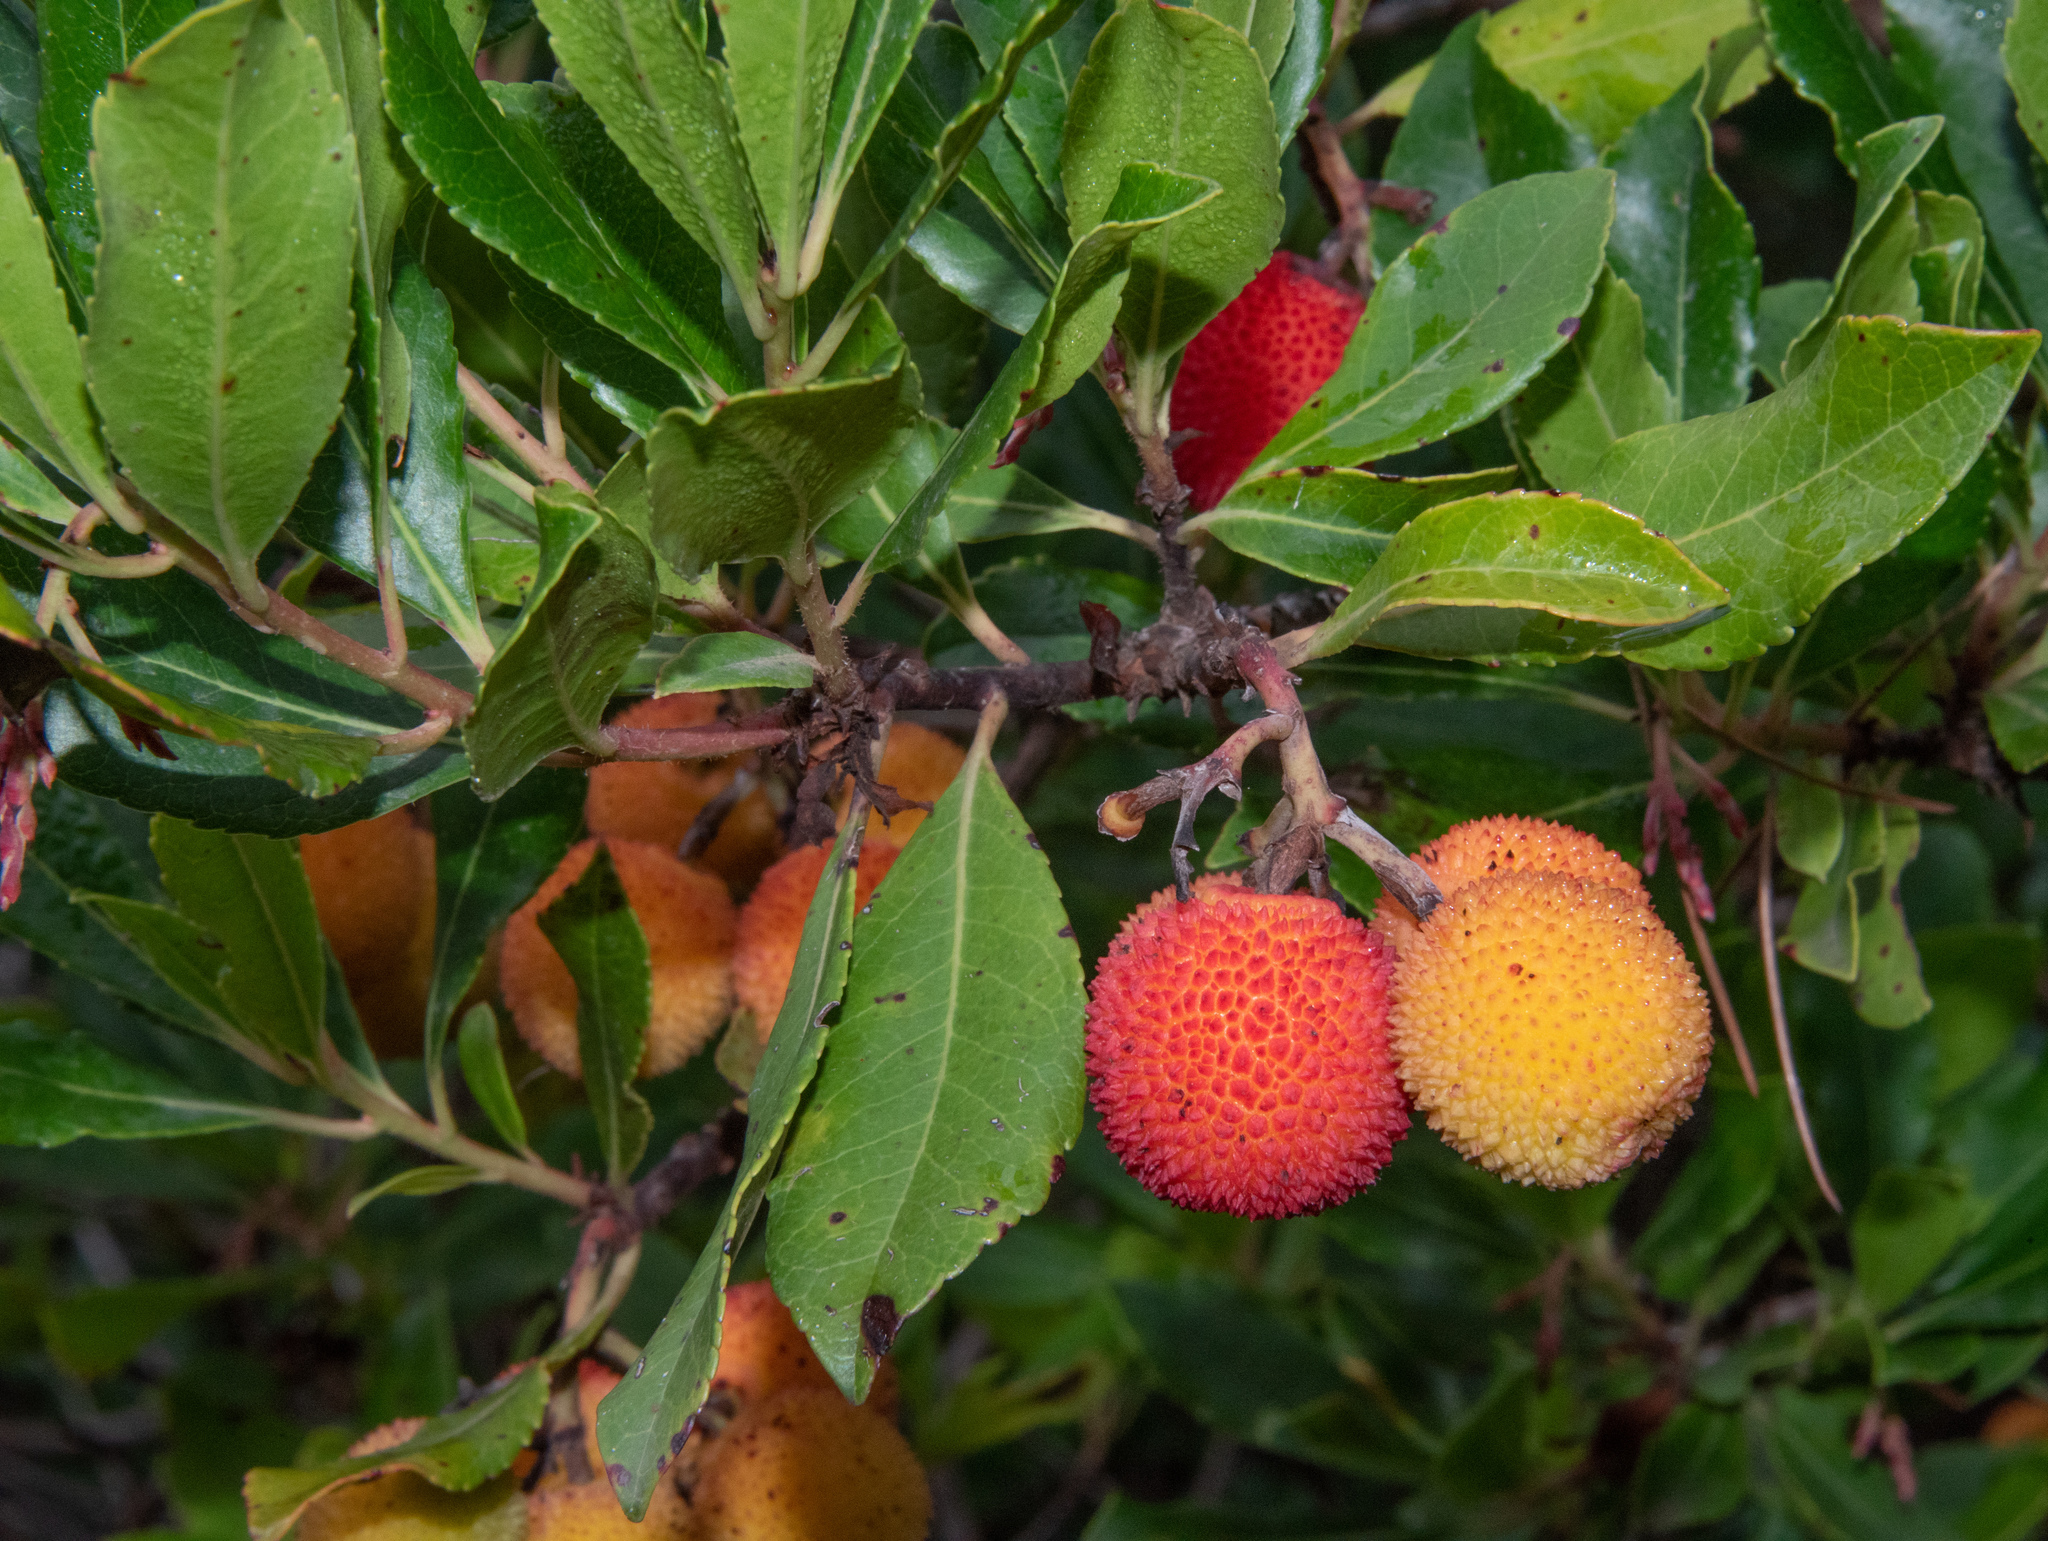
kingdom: Plantae
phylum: Tracheophyta
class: Magnoliopsida
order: Ericales
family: Ericaceae
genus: Arbutus
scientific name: Arbutus unedo
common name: Strawberry-tree
